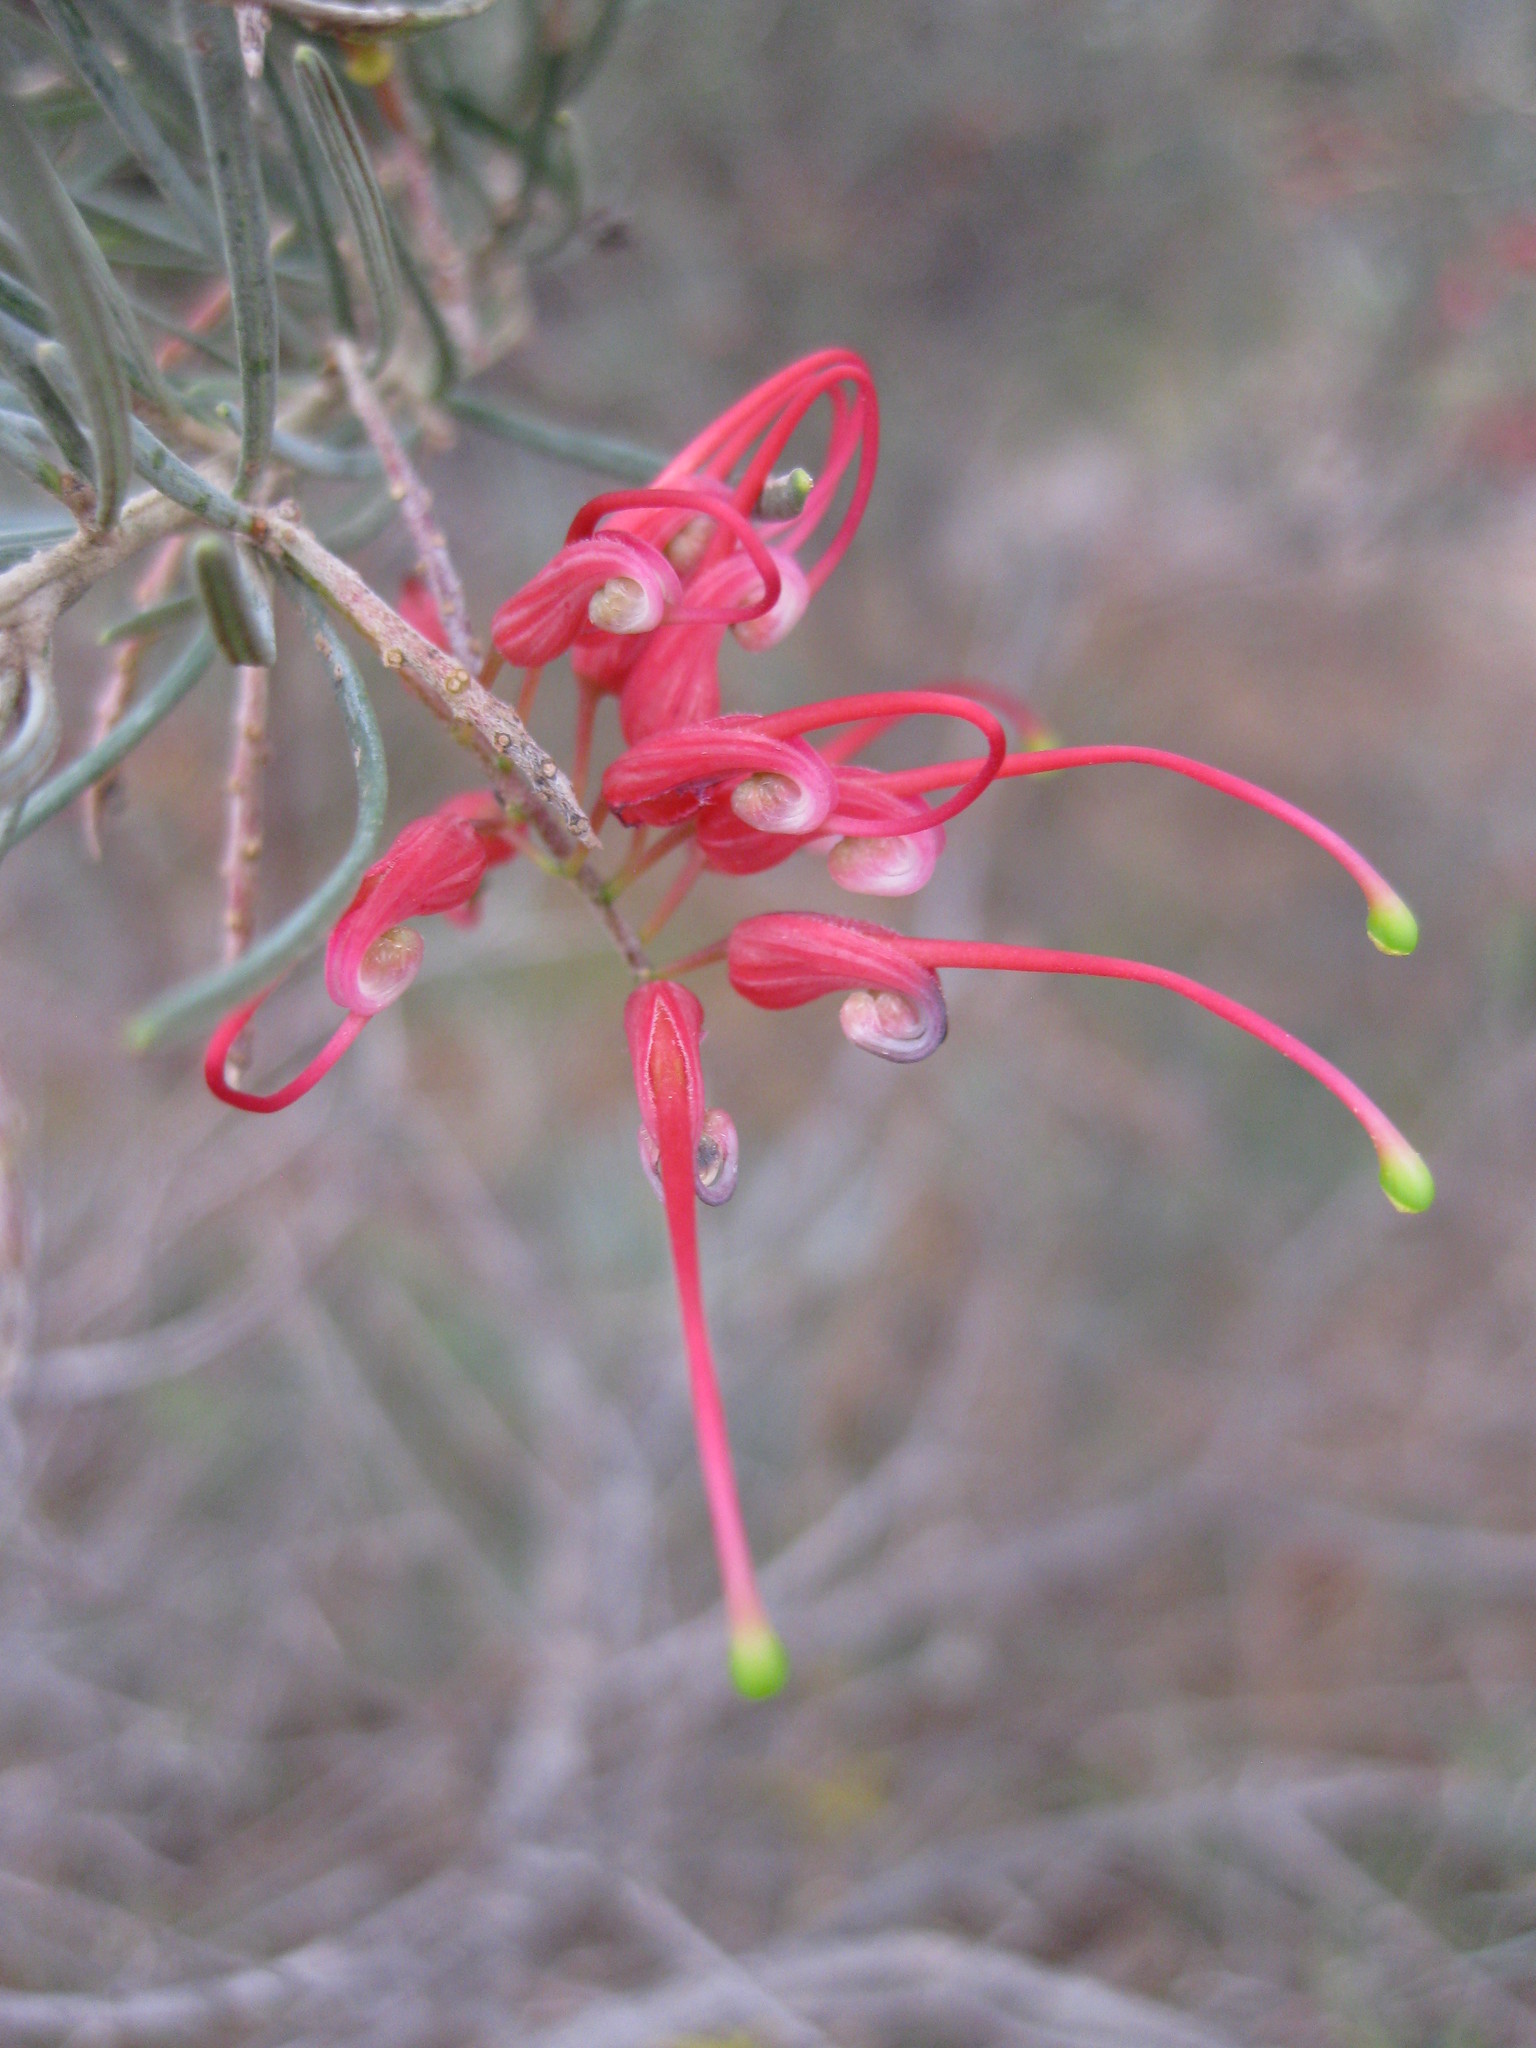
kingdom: Plantae
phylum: Tracheophyta
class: Magnoliopsida
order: Proteales
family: Proteaceae
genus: Grevillea
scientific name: Grevillea pinaster
